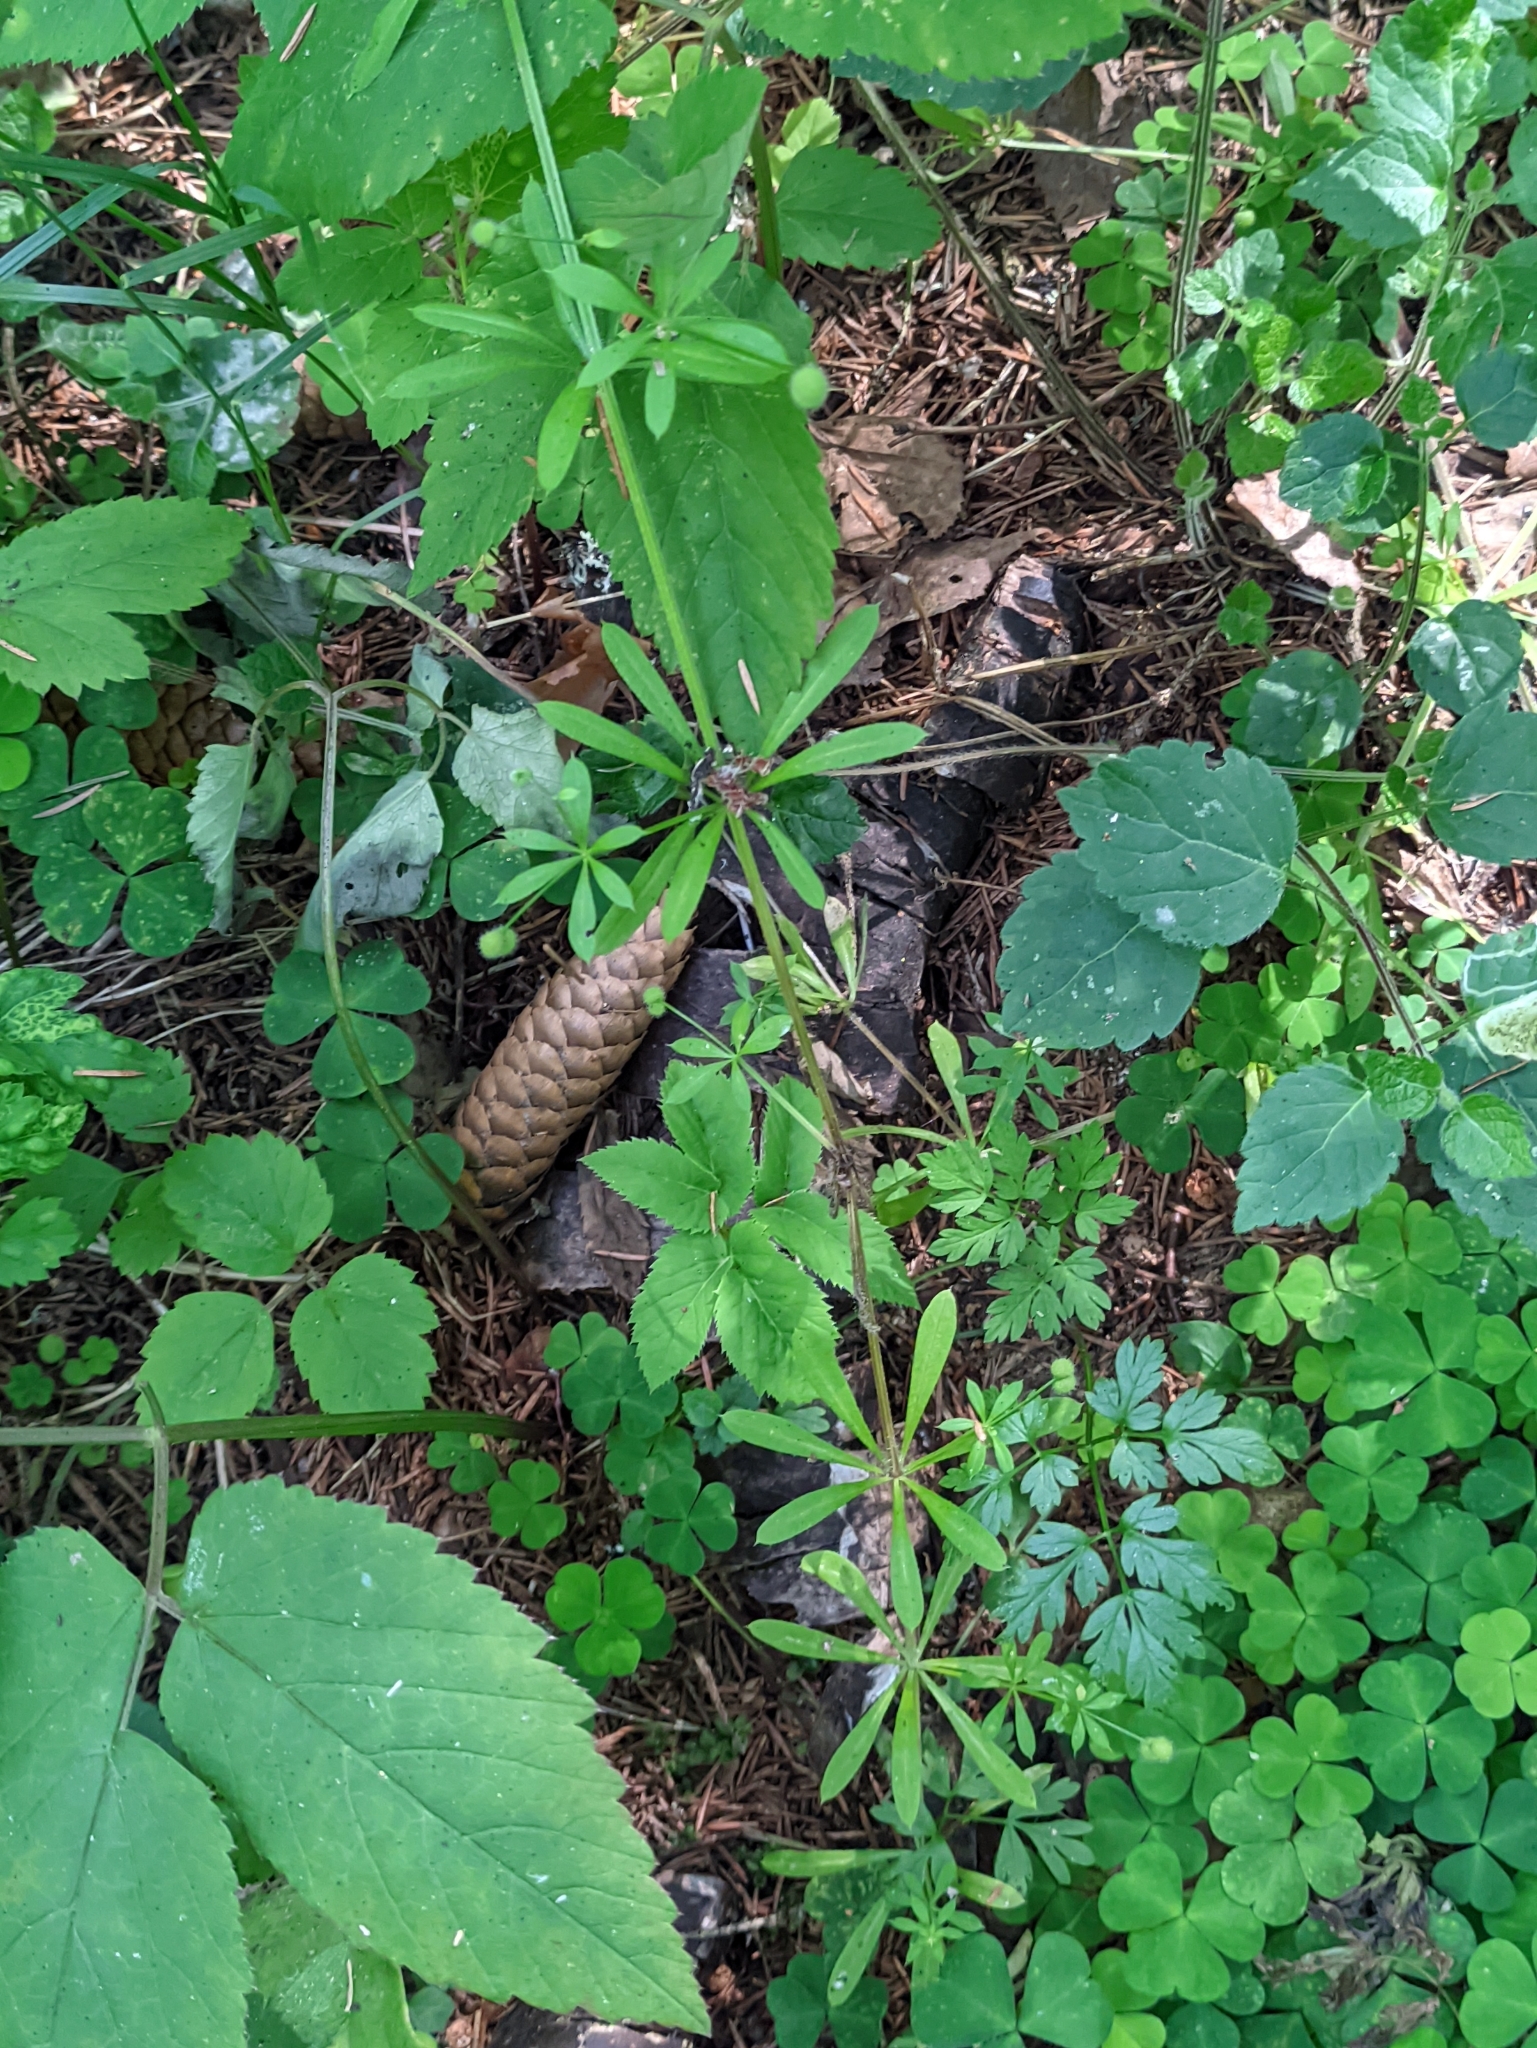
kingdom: Plantae
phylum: Tracheophyta
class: Magnoliopsida
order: Gentianales
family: Rubiaceae
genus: Galium
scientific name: Galium aparine
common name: Cleavers
